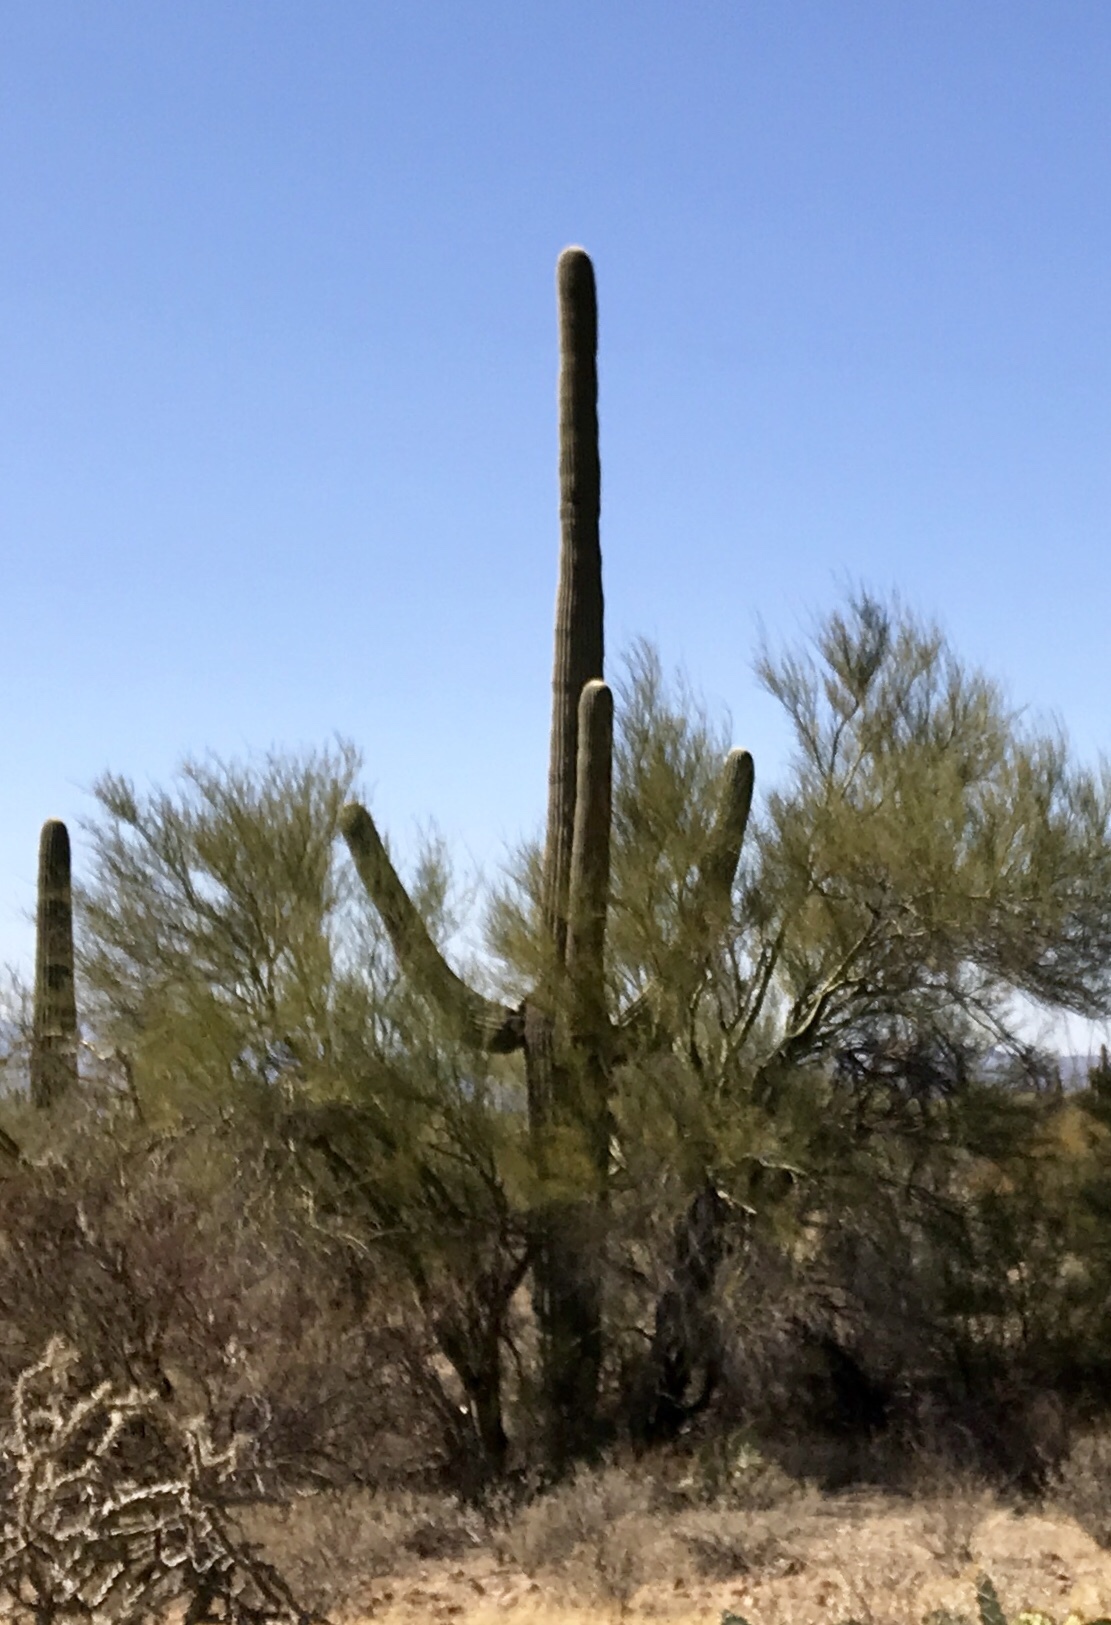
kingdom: Plantae
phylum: Tracheophyta
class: Magnoliopsida
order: Caryophyllales
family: Cactaceae
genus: Carnegiea
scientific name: Carnegiea gigantea
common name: Saguaro
